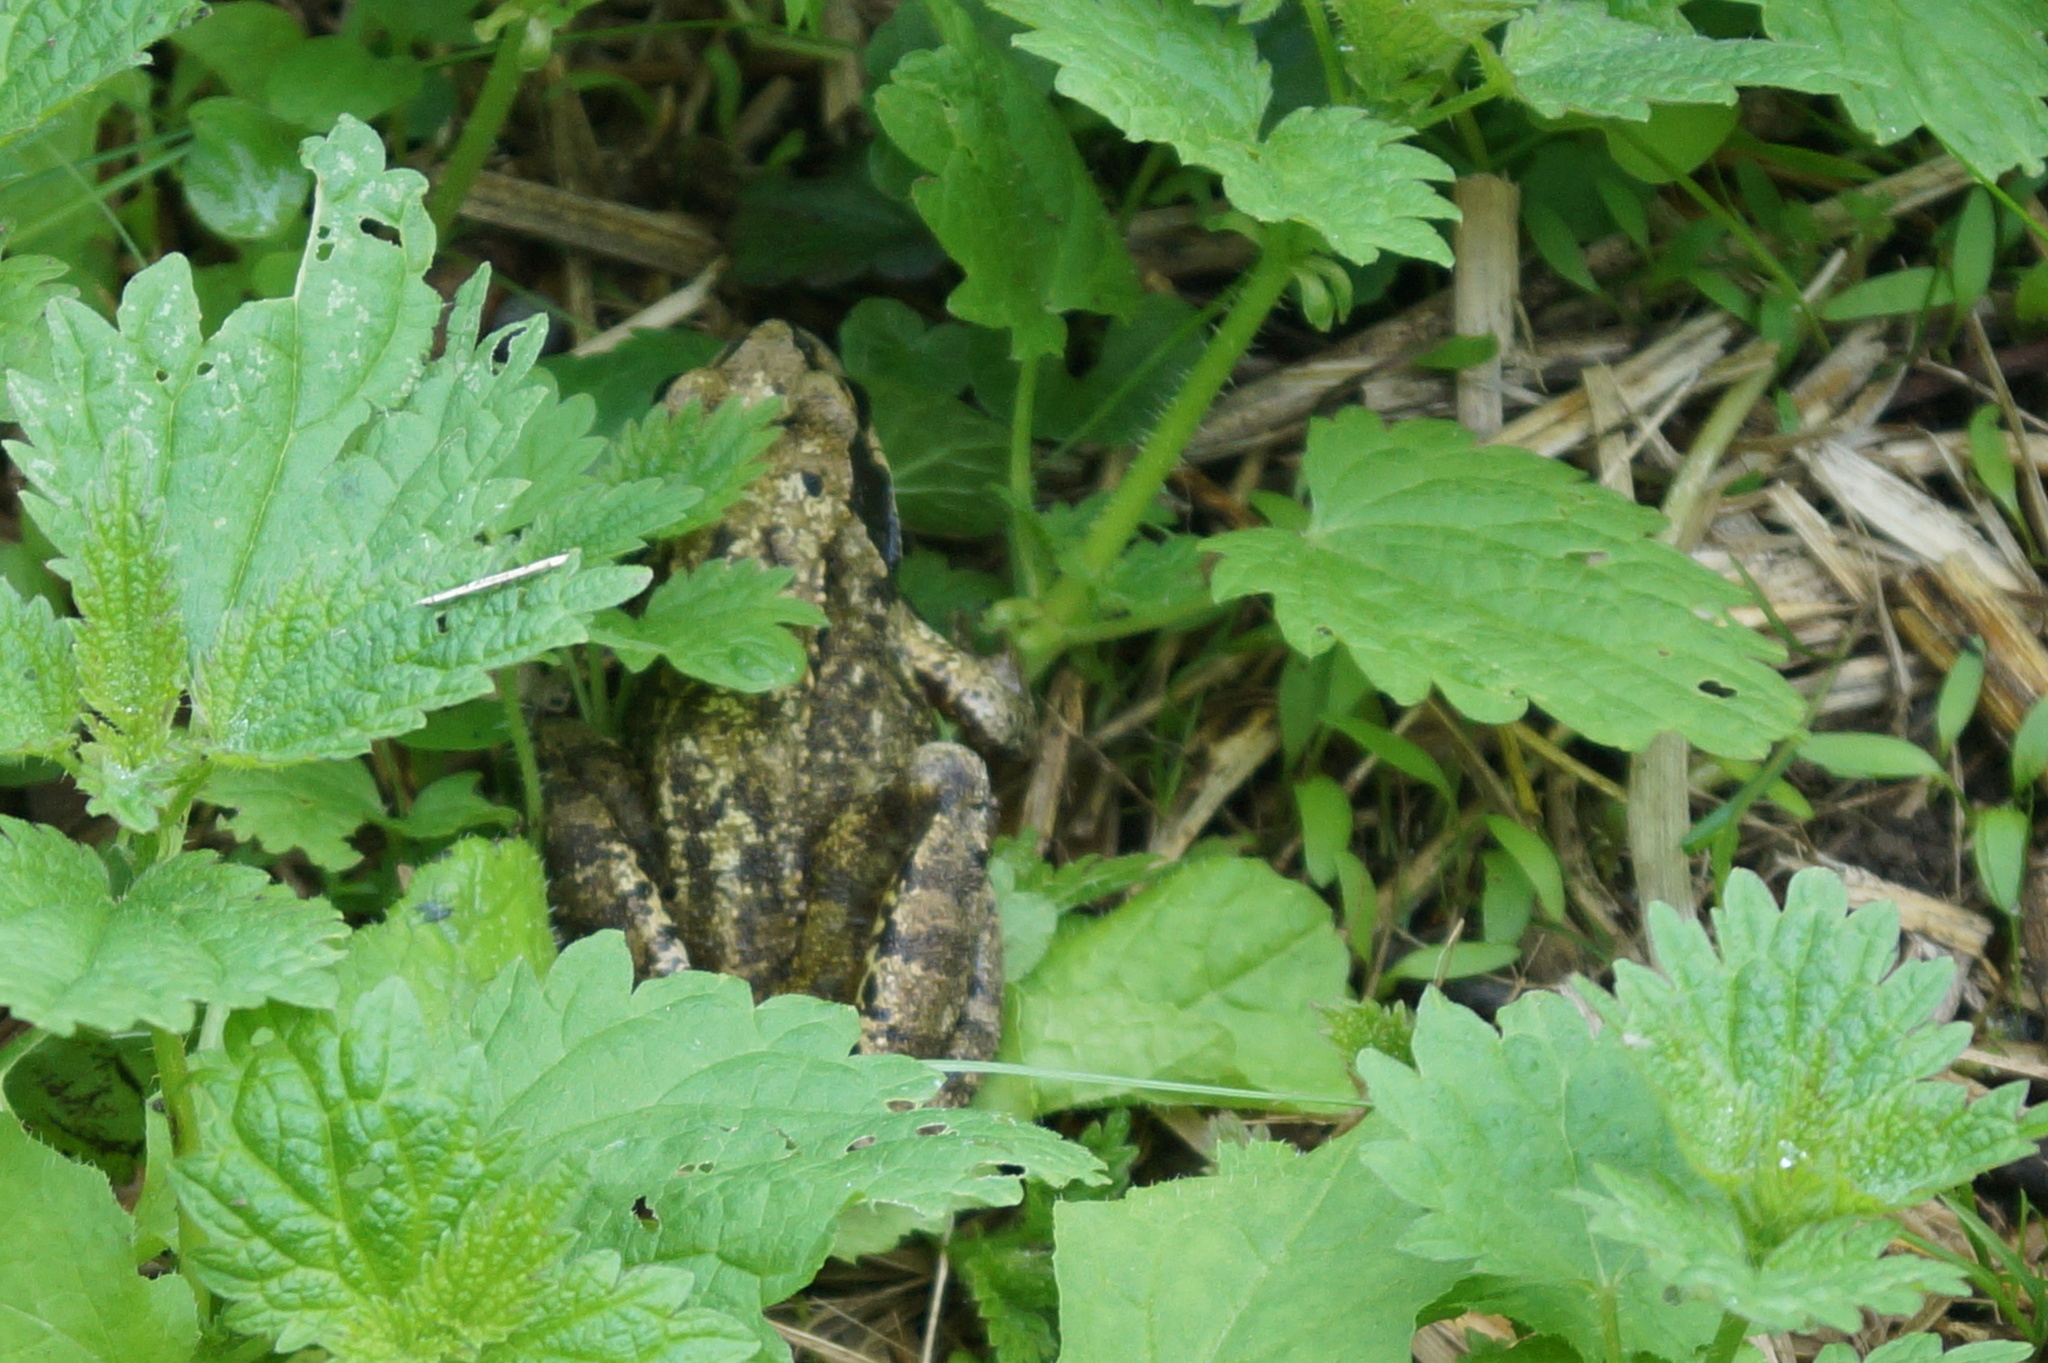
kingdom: Animalia
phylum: Chordata
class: Amphibia
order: Anura
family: Ranidae
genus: Rana
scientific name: Rana temporaria
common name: Common frog
